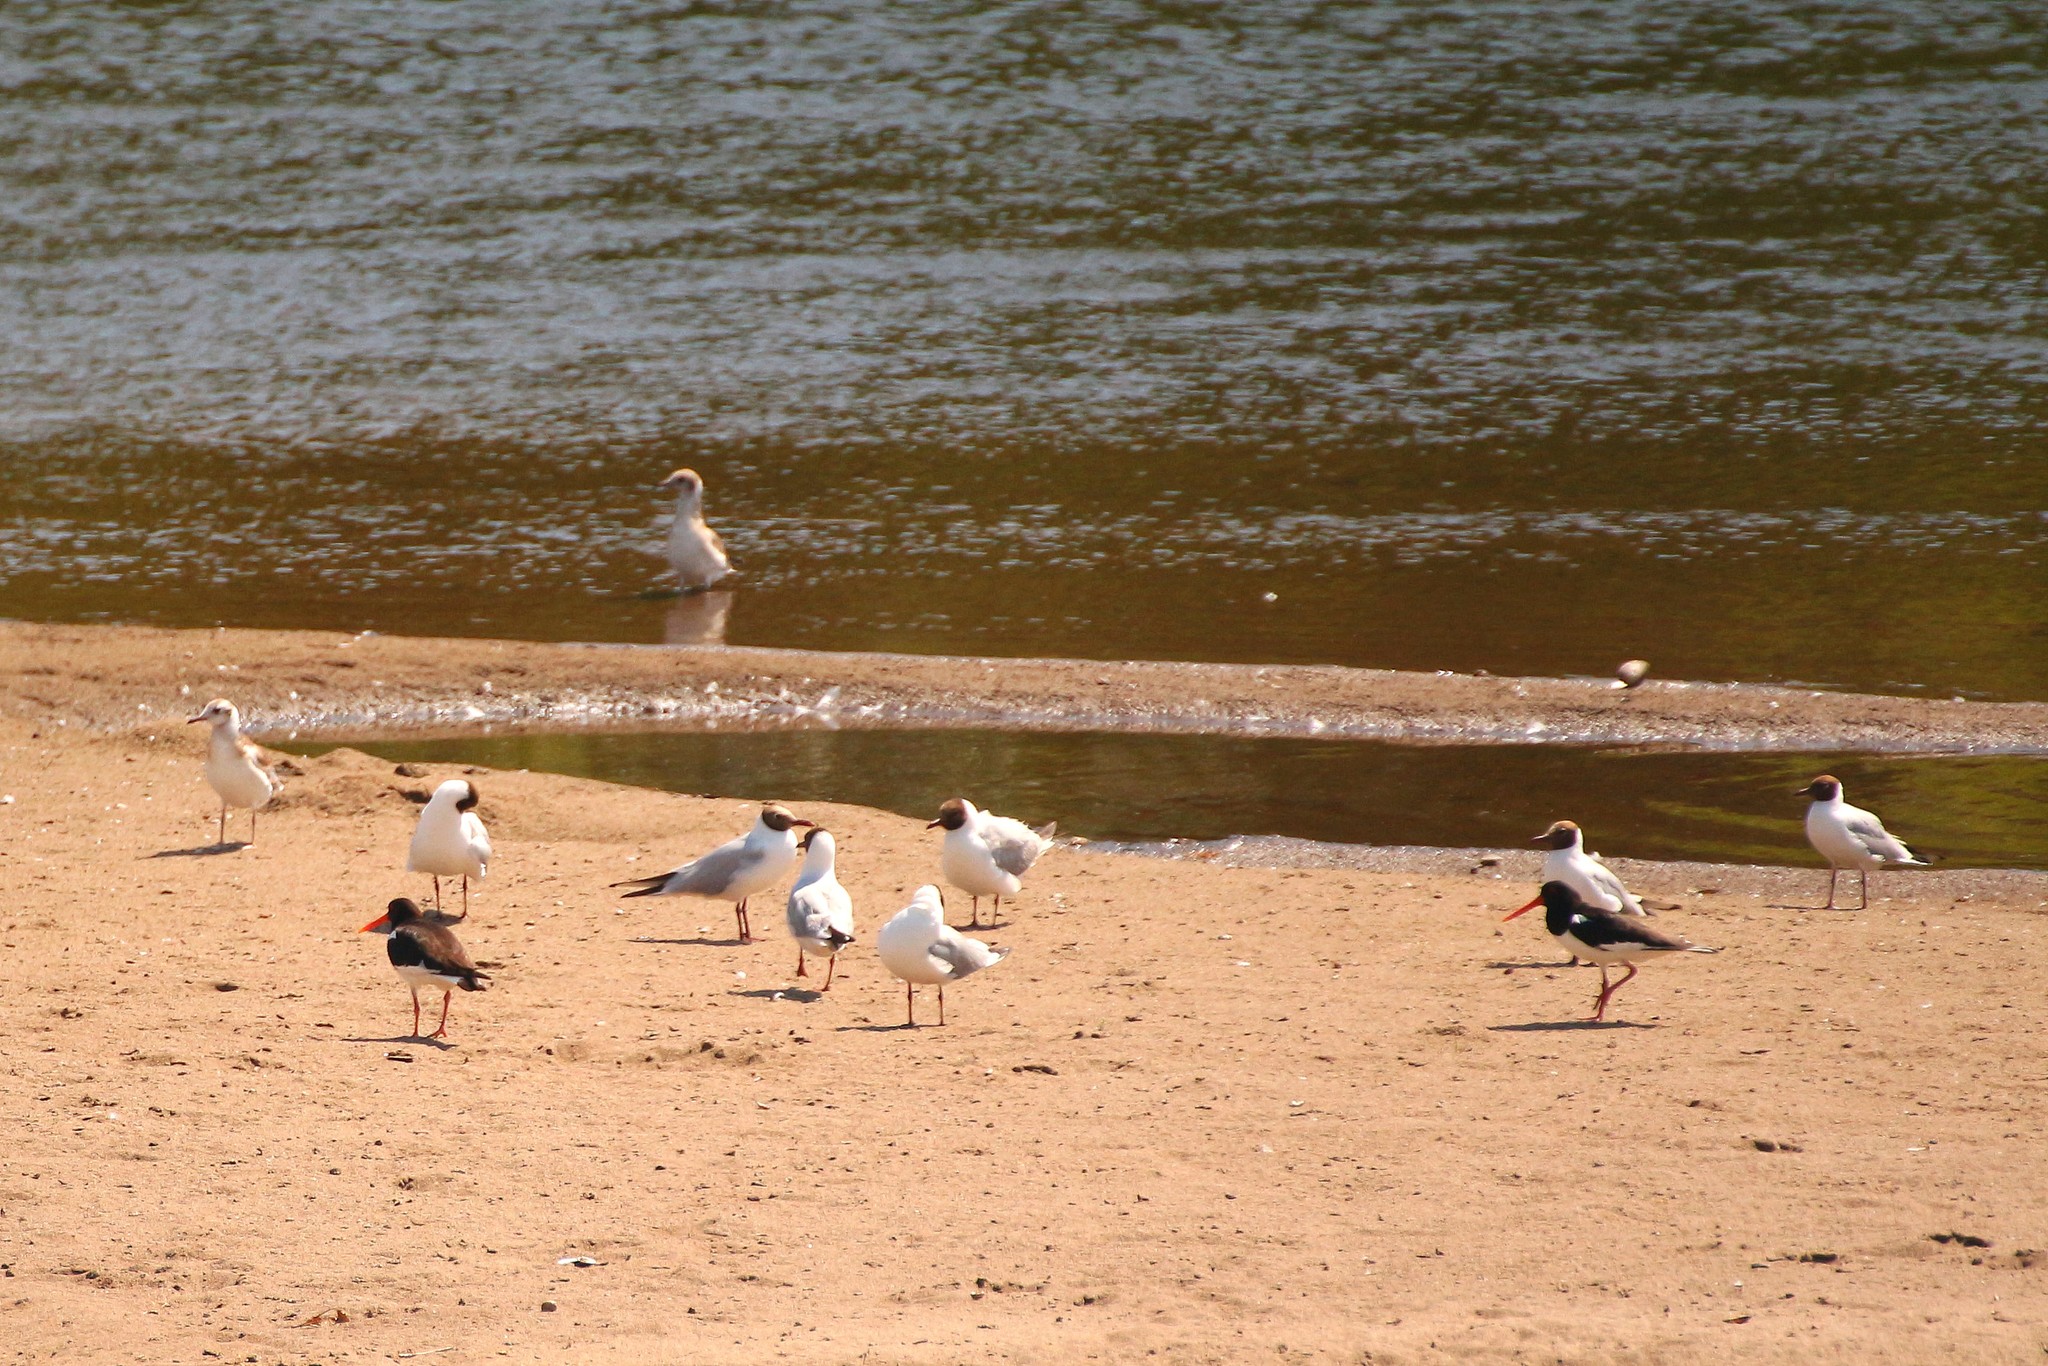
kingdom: Animalia
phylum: Chordata
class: Aves
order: Charadriiformes
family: Haematopodidae
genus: Haematopus
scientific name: Haematopus ostralegus
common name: Eurasian oystercatcher
